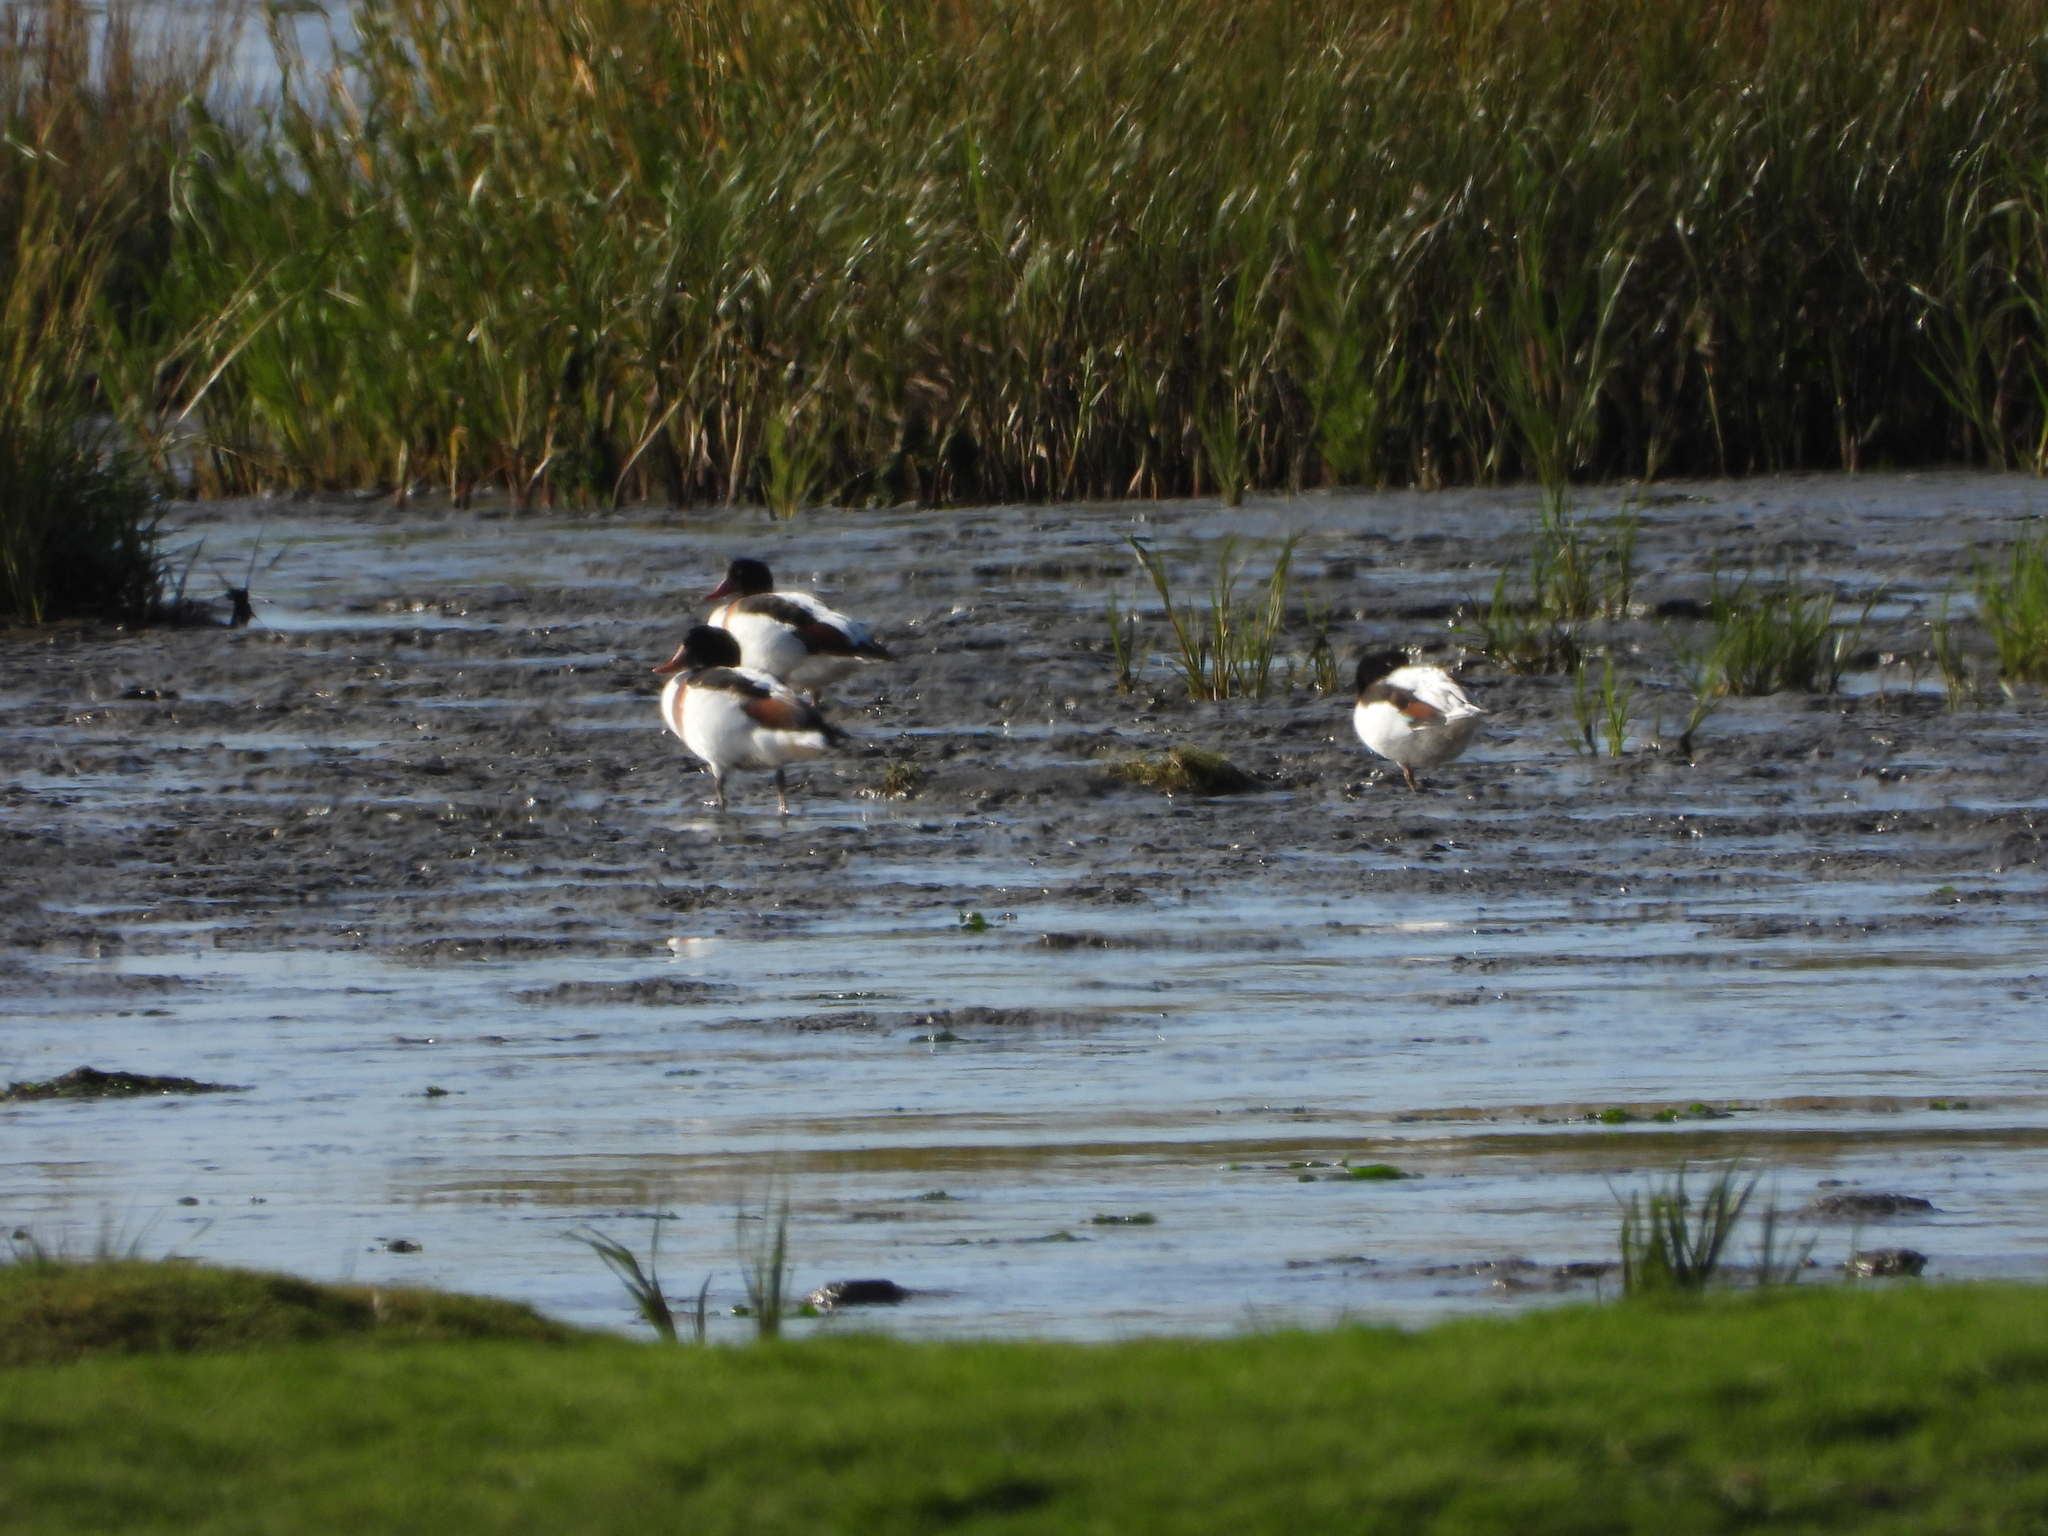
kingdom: Animalia
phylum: Chordata
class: Aves
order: Anseriformes
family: Anatidae
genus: Tadorna
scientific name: Tadorna tadorna
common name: Common shelduck
